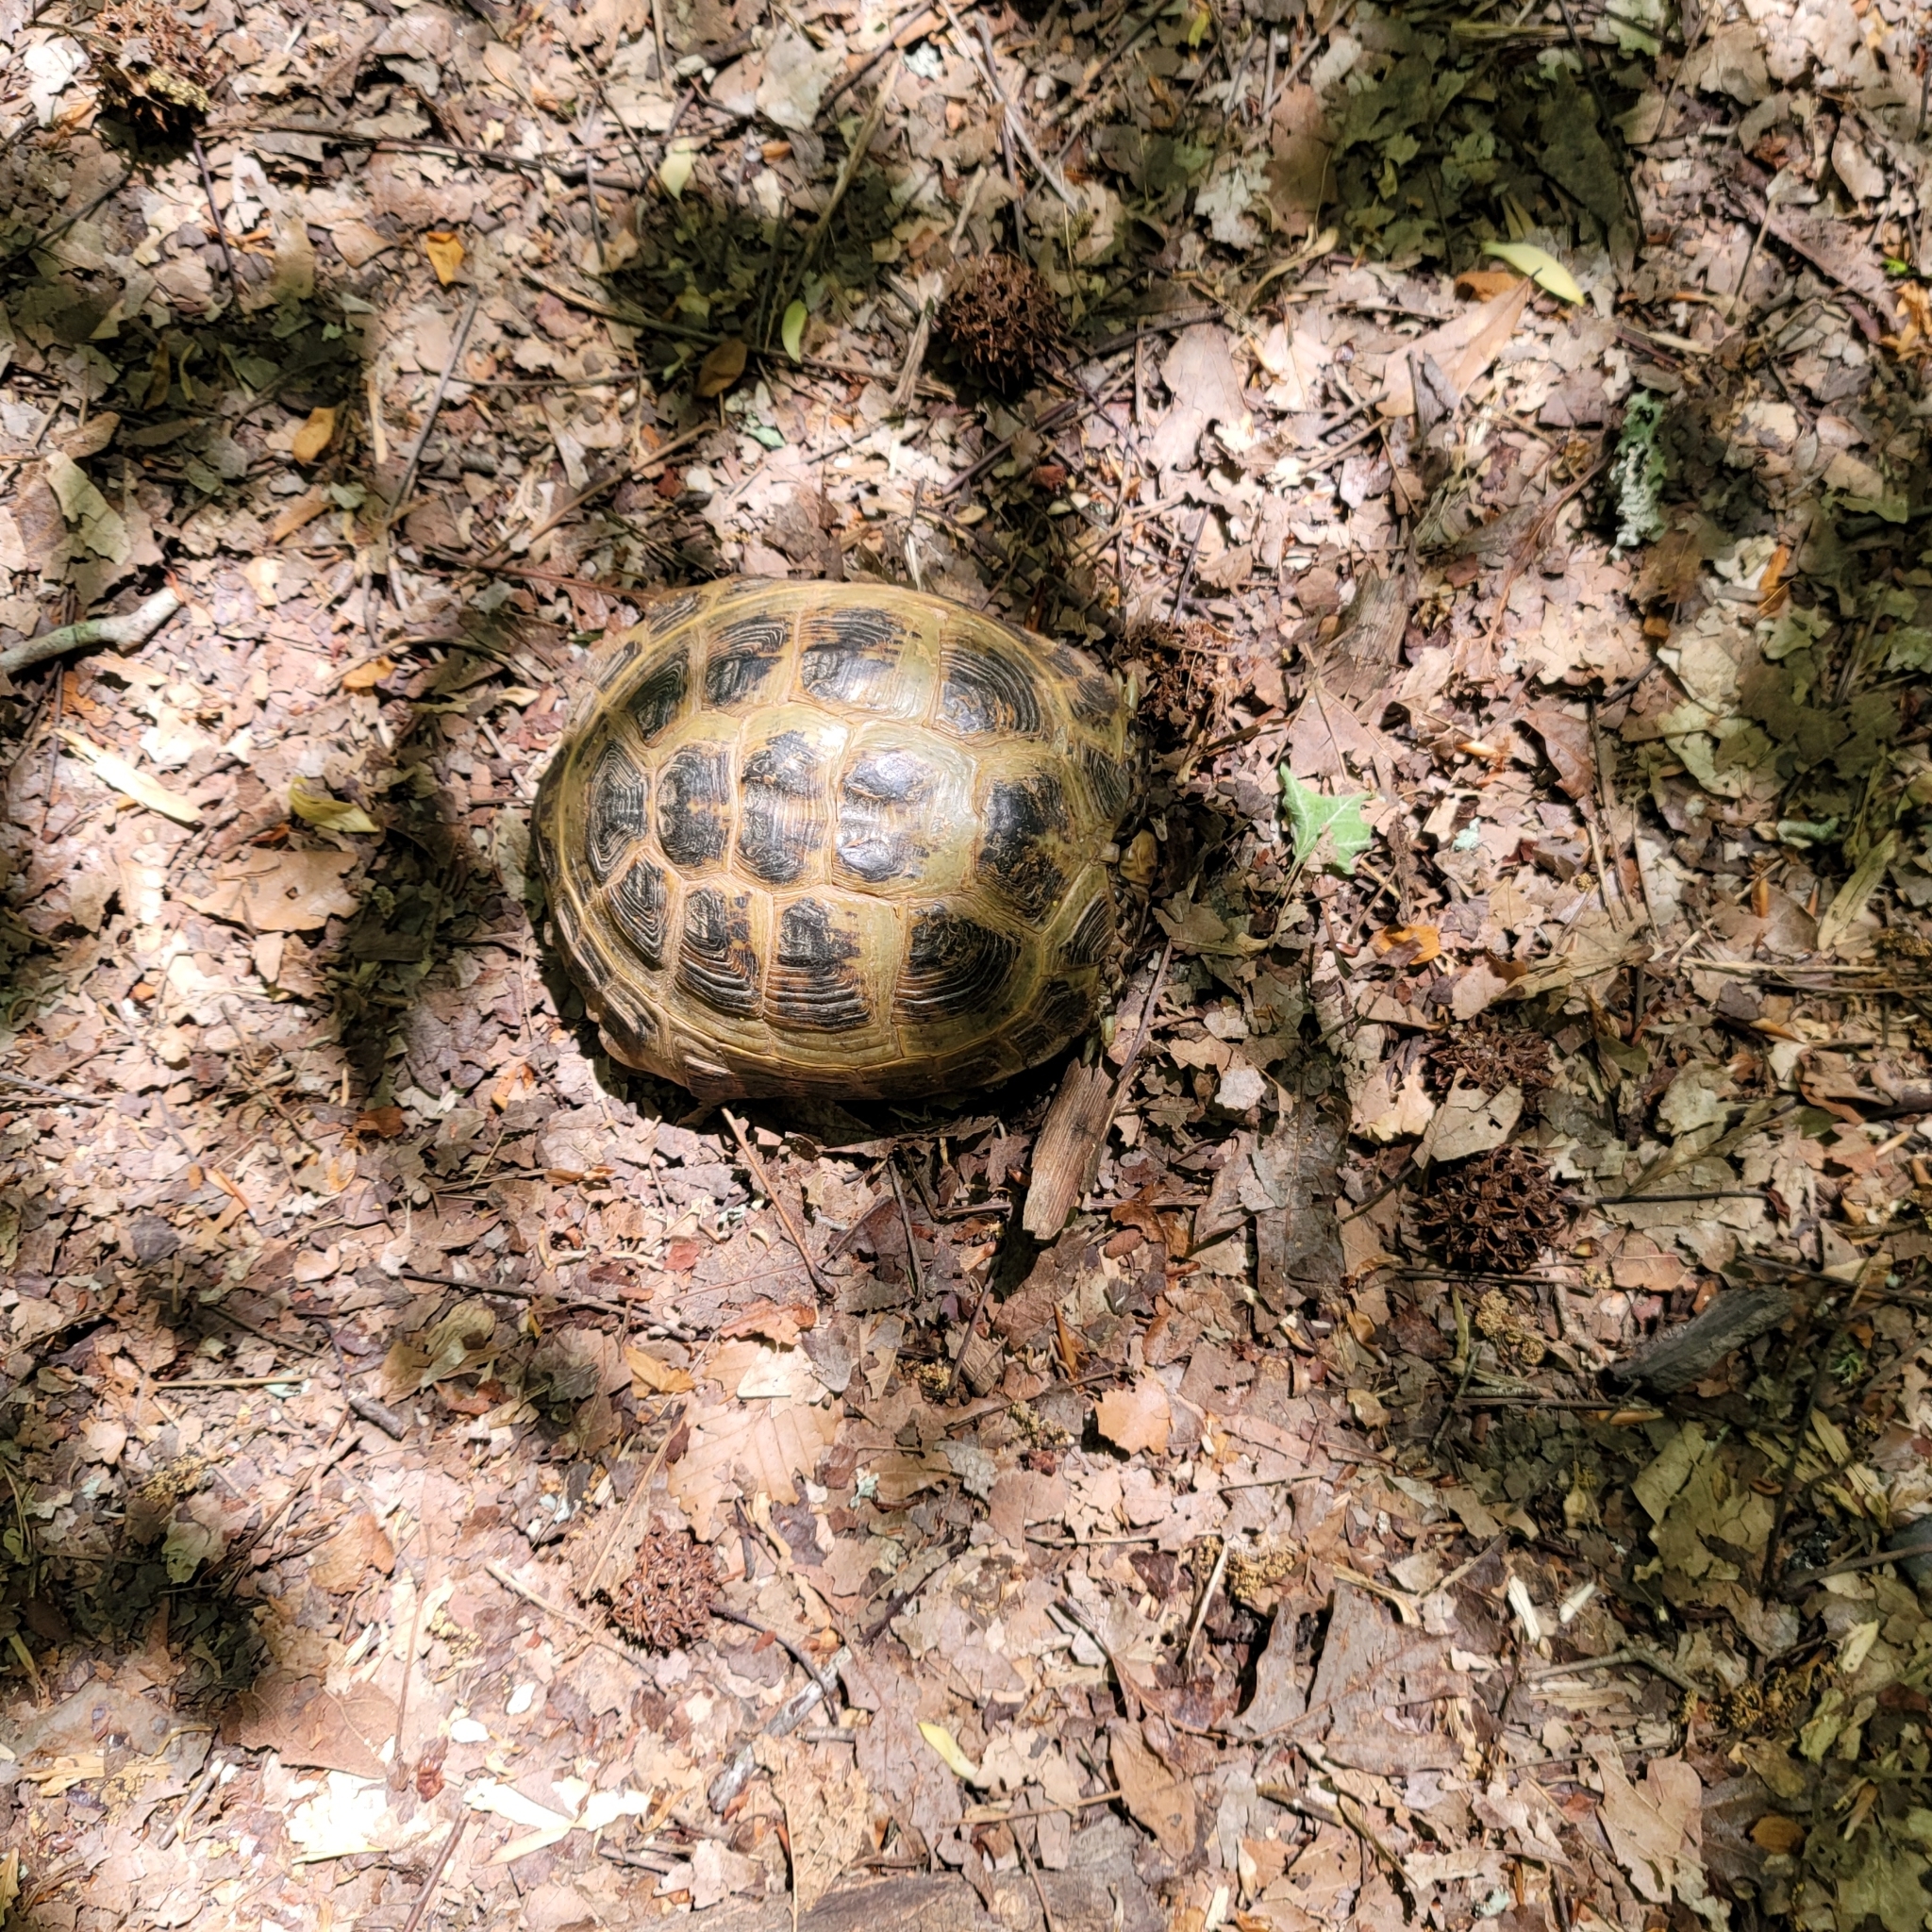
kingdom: Animalia
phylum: Chordata
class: Testudines
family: Testudinidae
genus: Testudo
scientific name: Testudo horsfieldii
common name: Central asia tortoise
